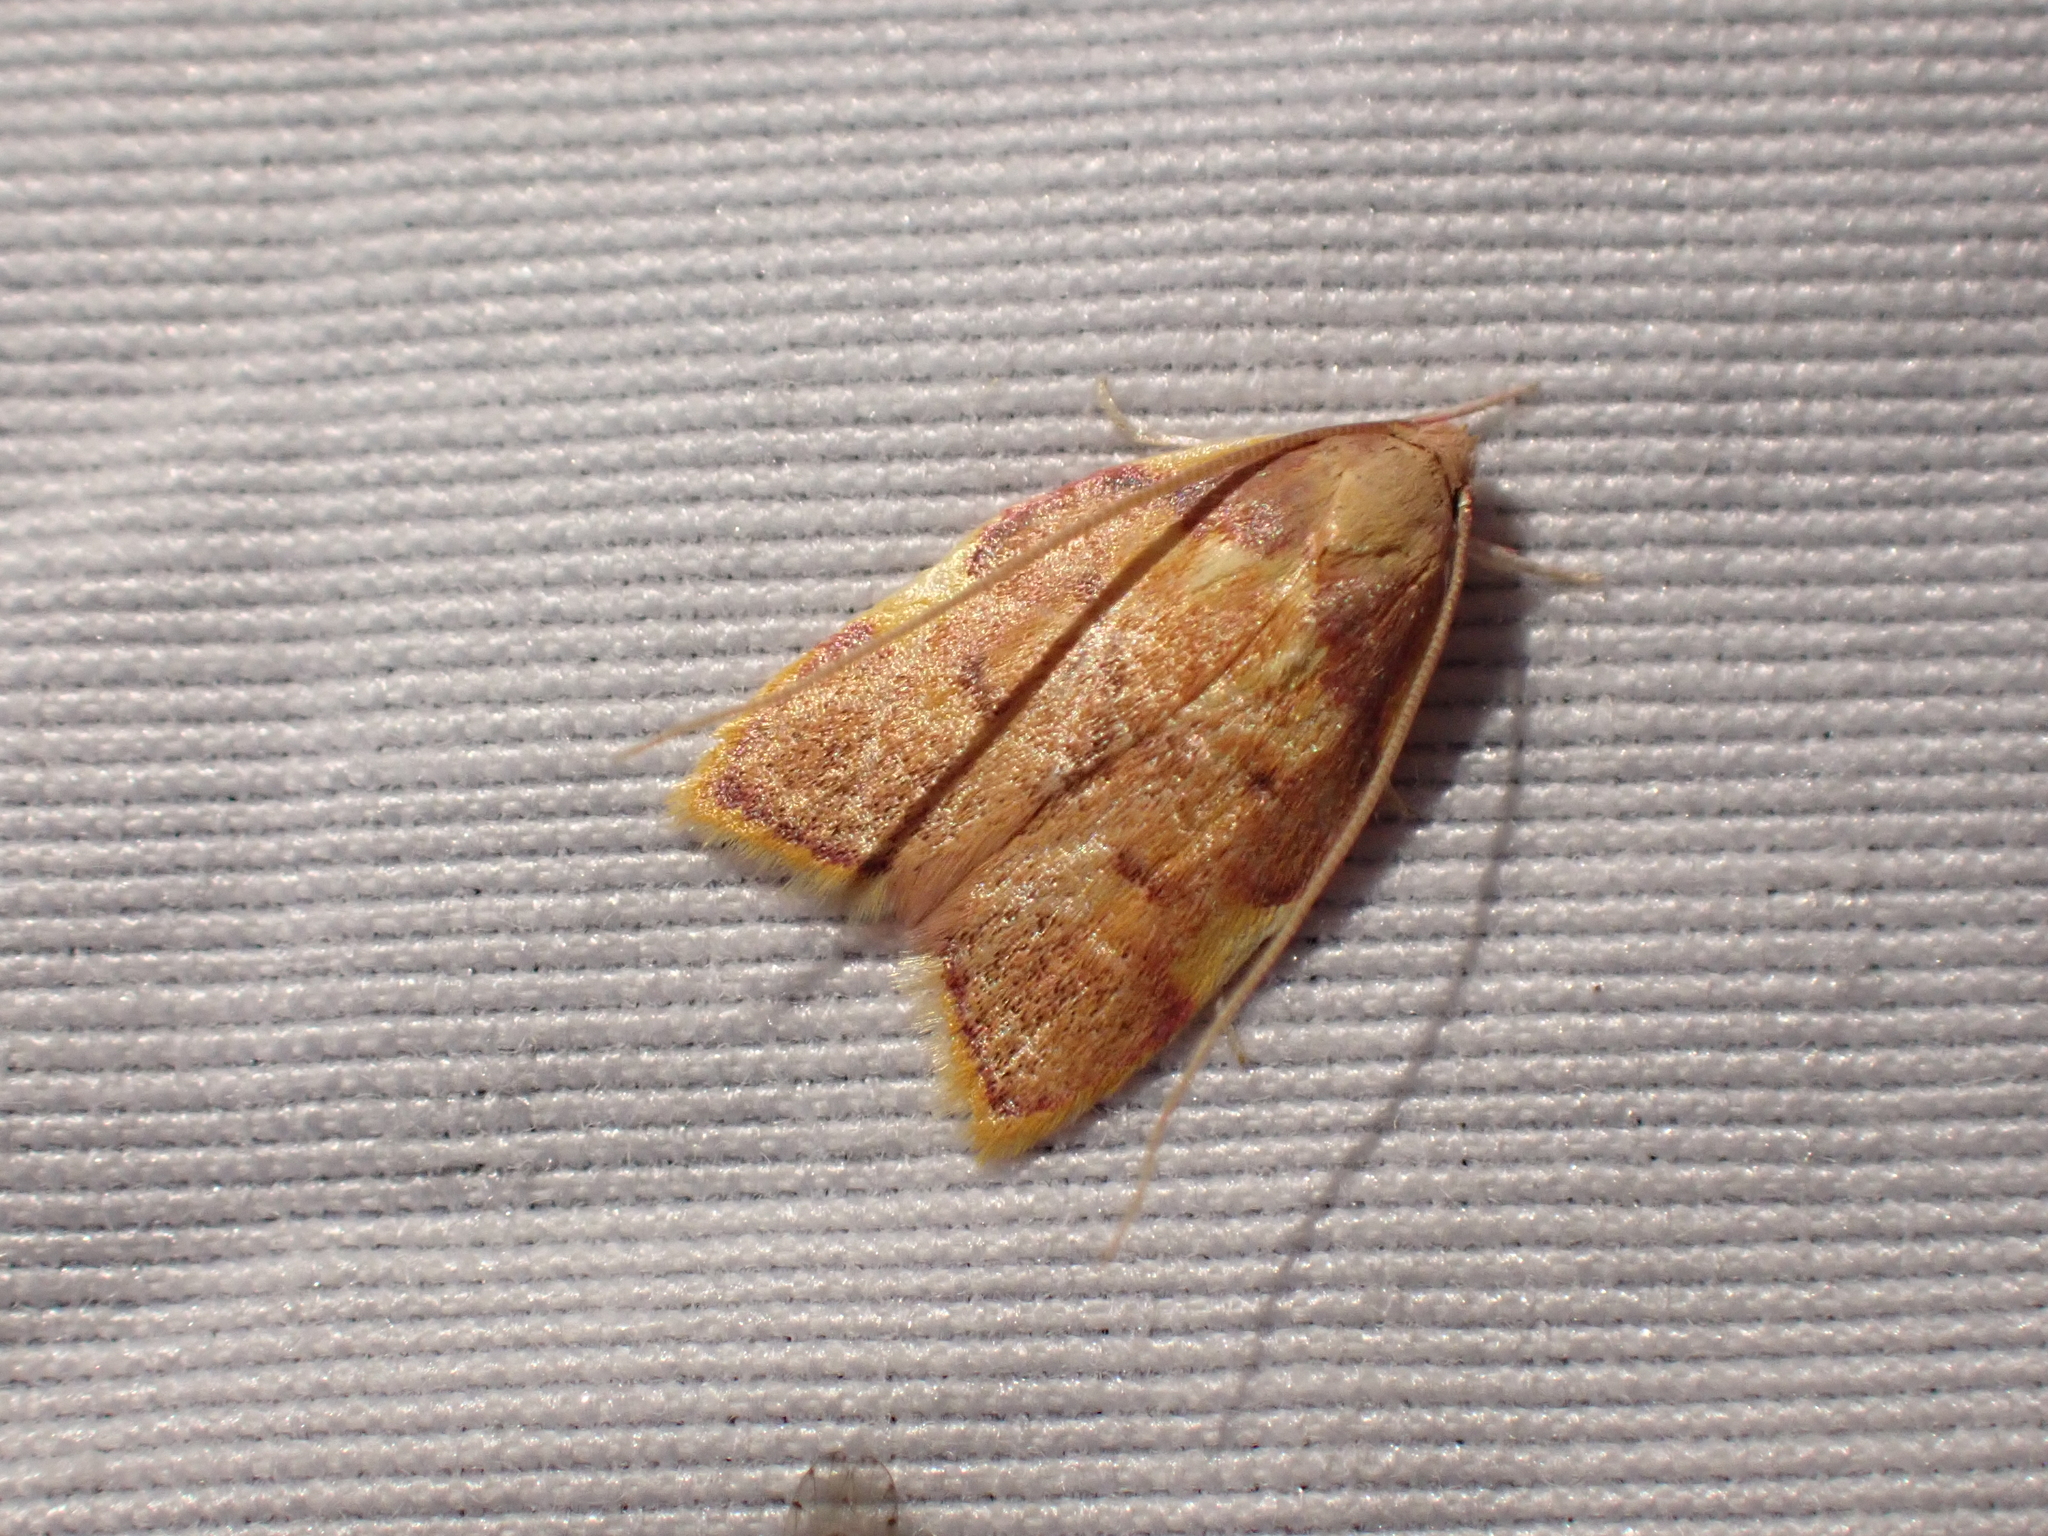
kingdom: Animalia
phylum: Arthropoda
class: Insecta
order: Lepidoptera
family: Peleopodidae
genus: Carcina
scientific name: Carcina quercana
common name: Moth
